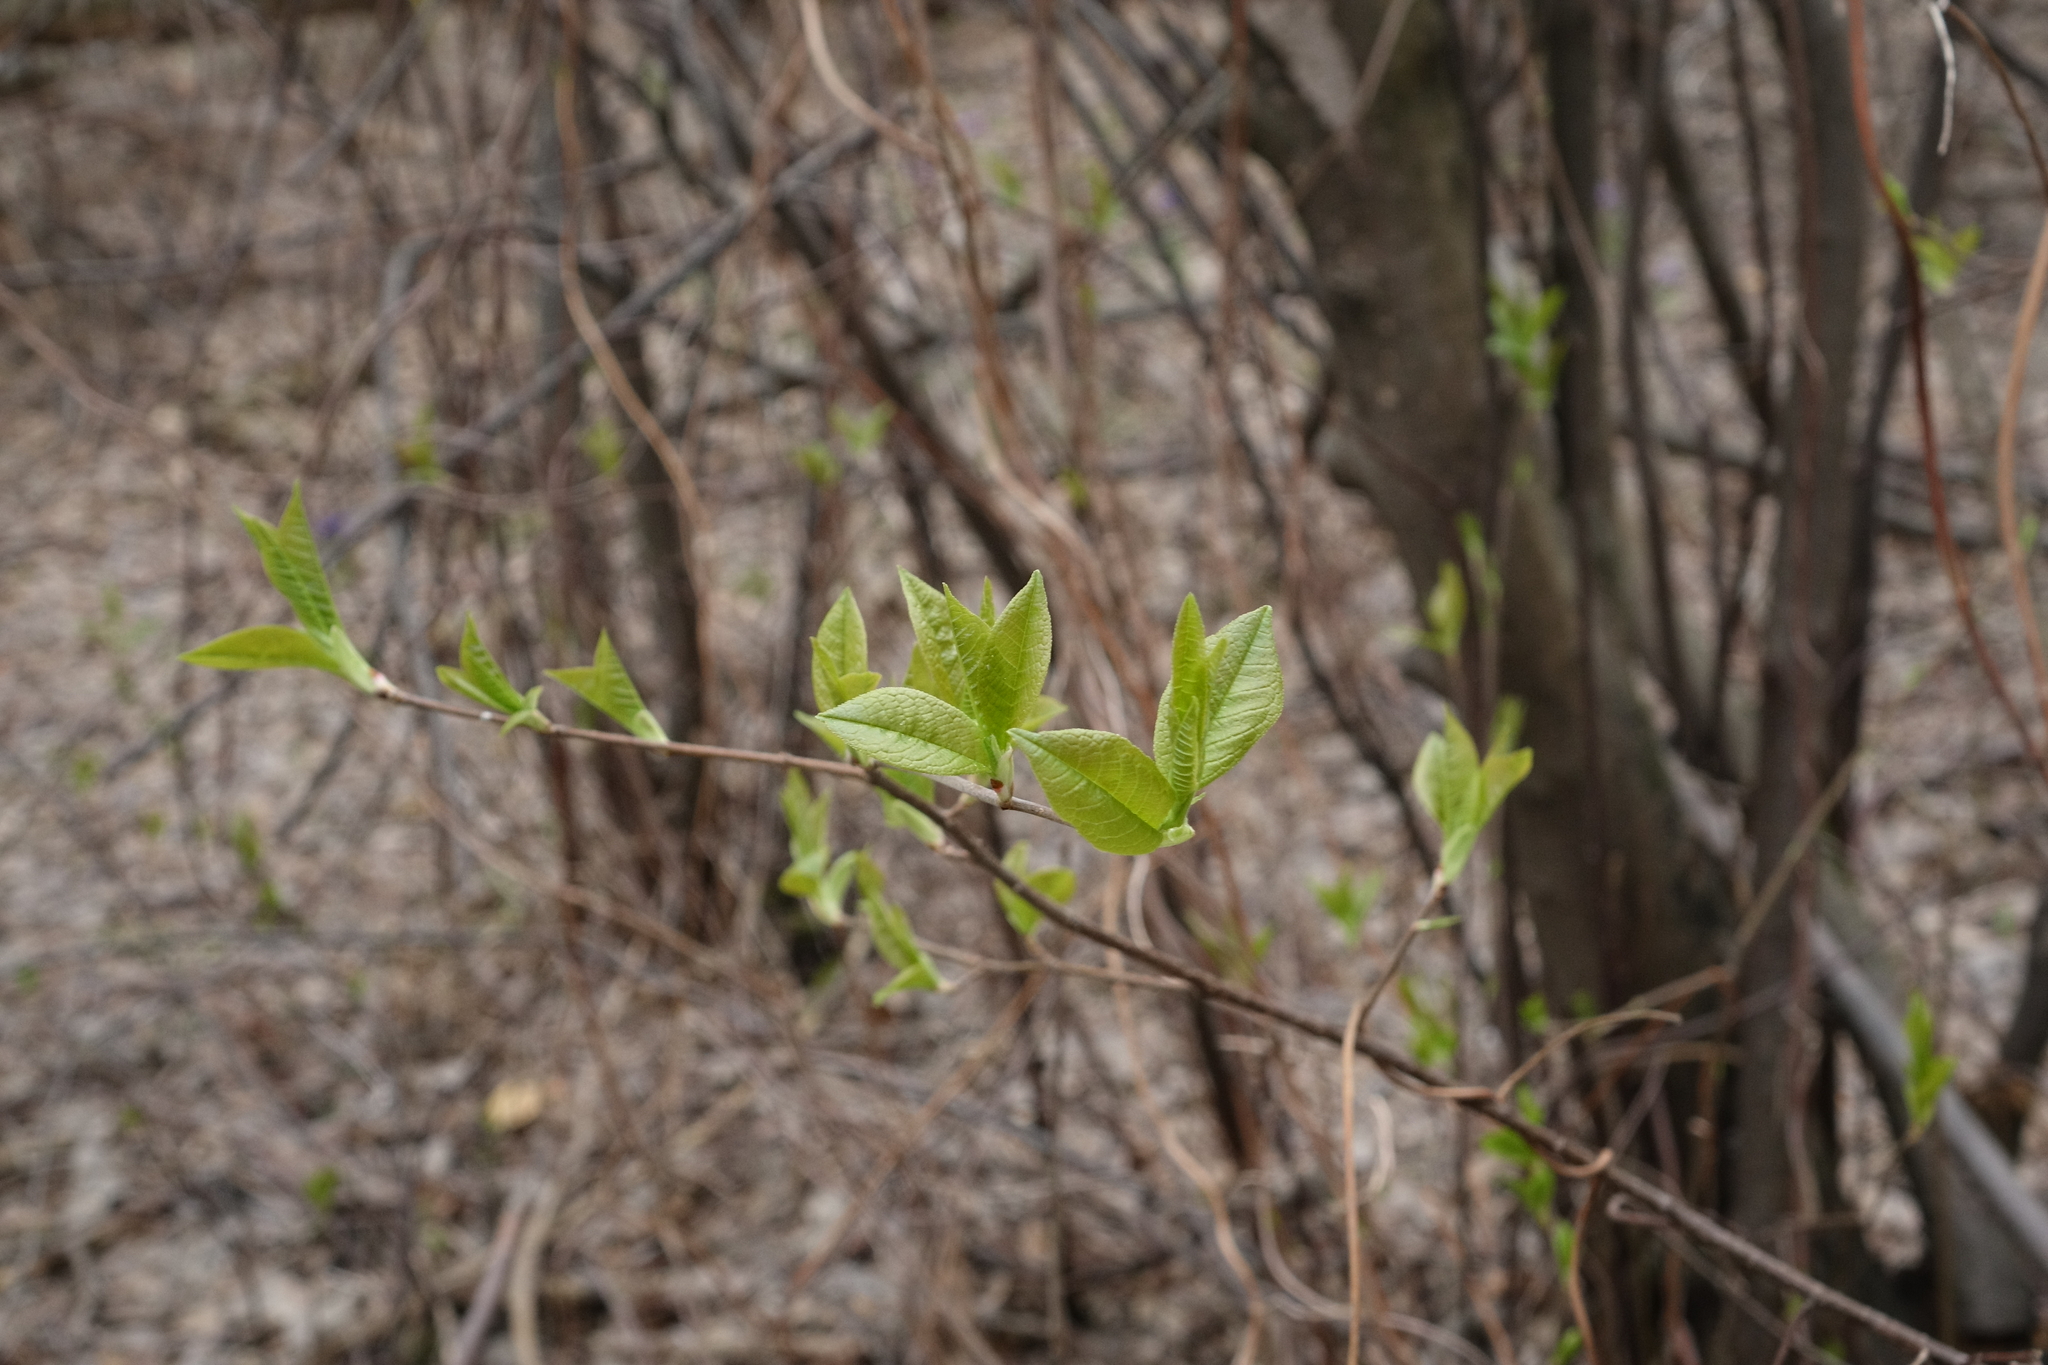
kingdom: Plantae
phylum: Tracheophyta
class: Magnoliopsida
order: Rosales
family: Rosaceae
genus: Prunus
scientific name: Prunus padus
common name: Bird cherry
